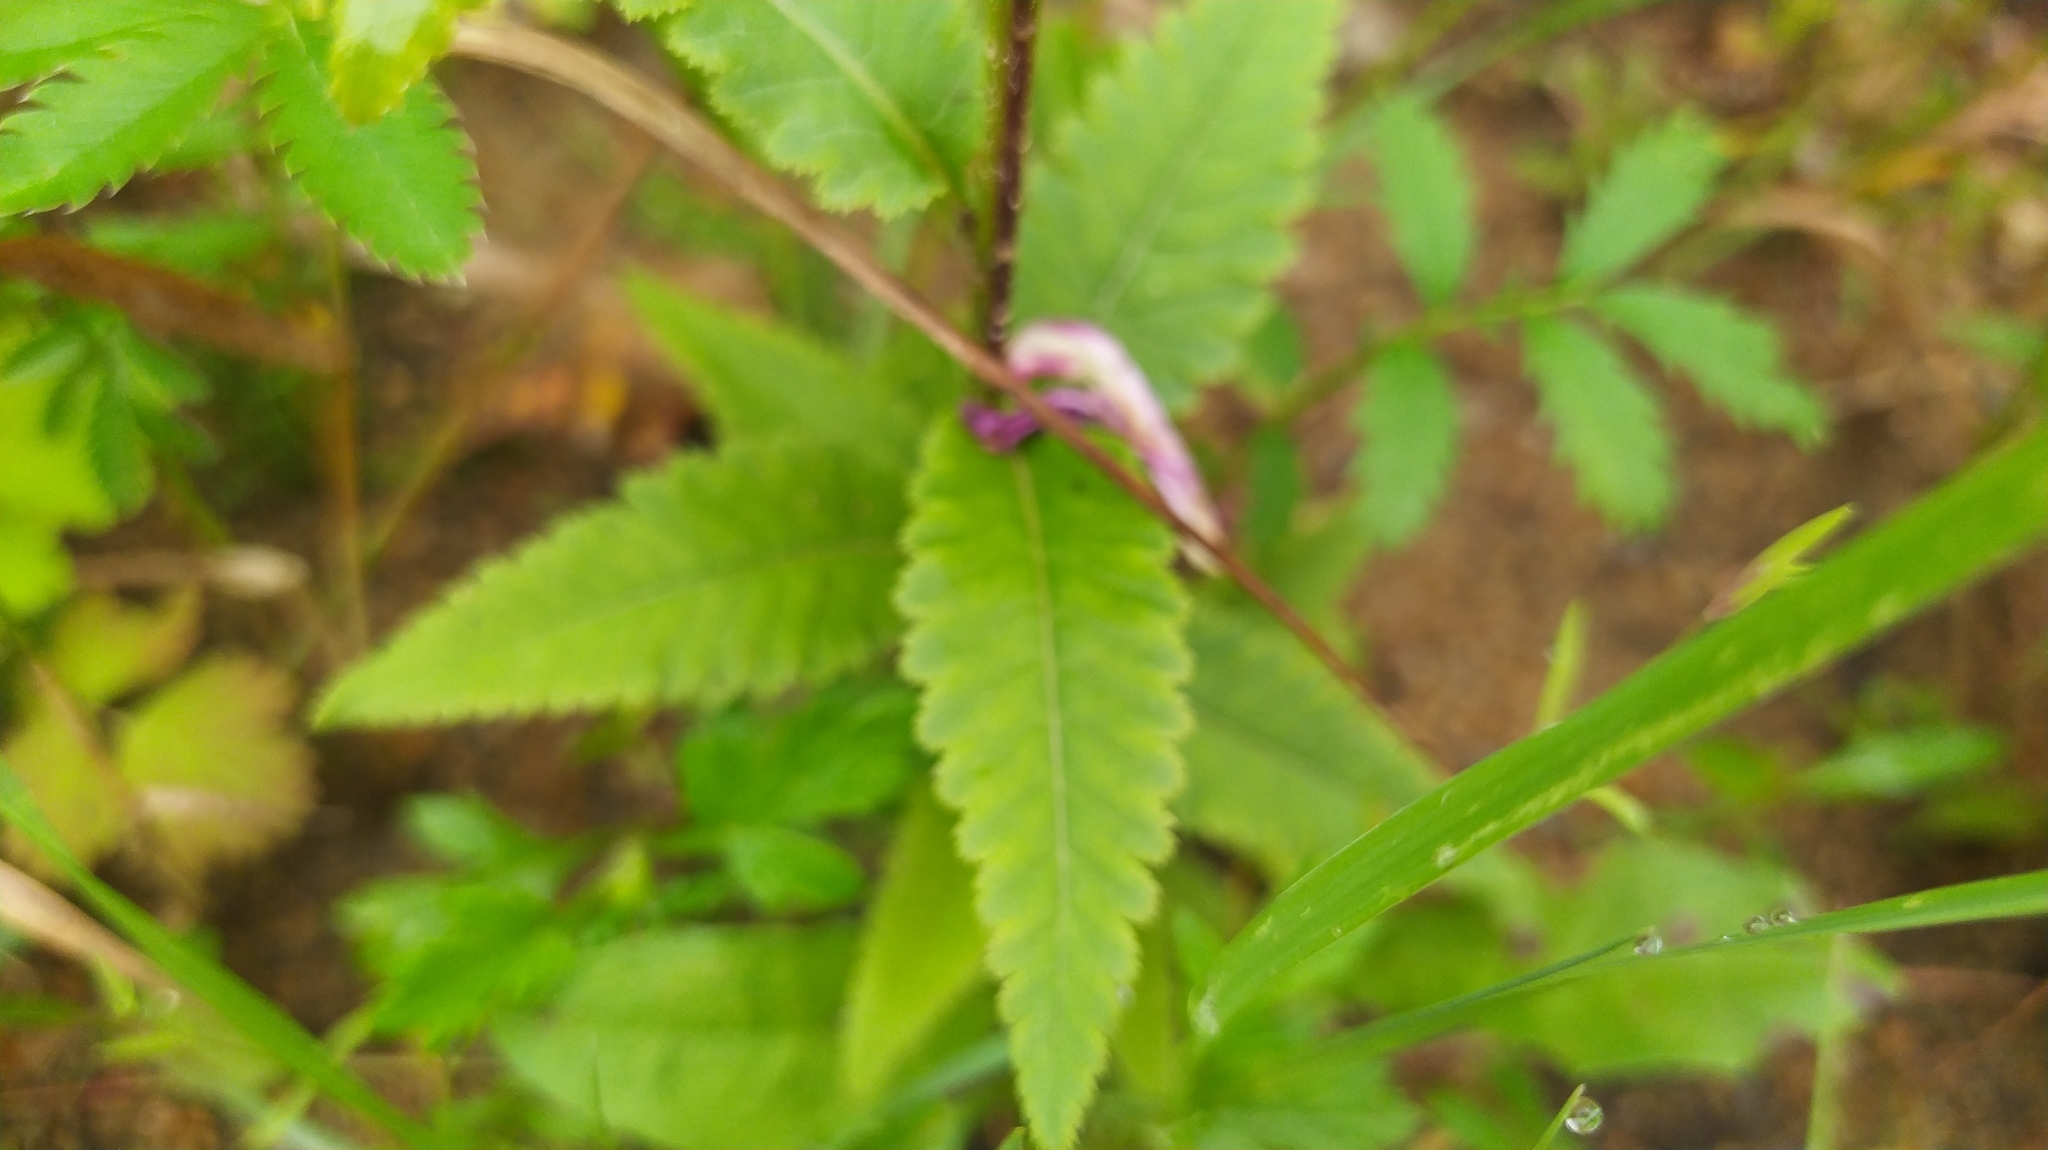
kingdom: Plantae
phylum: Tracheophyta
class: Magnoliopsida
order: Lamiales
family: Orobanchaceae
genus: Pedicularis
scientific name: Pedicularis resupinata
